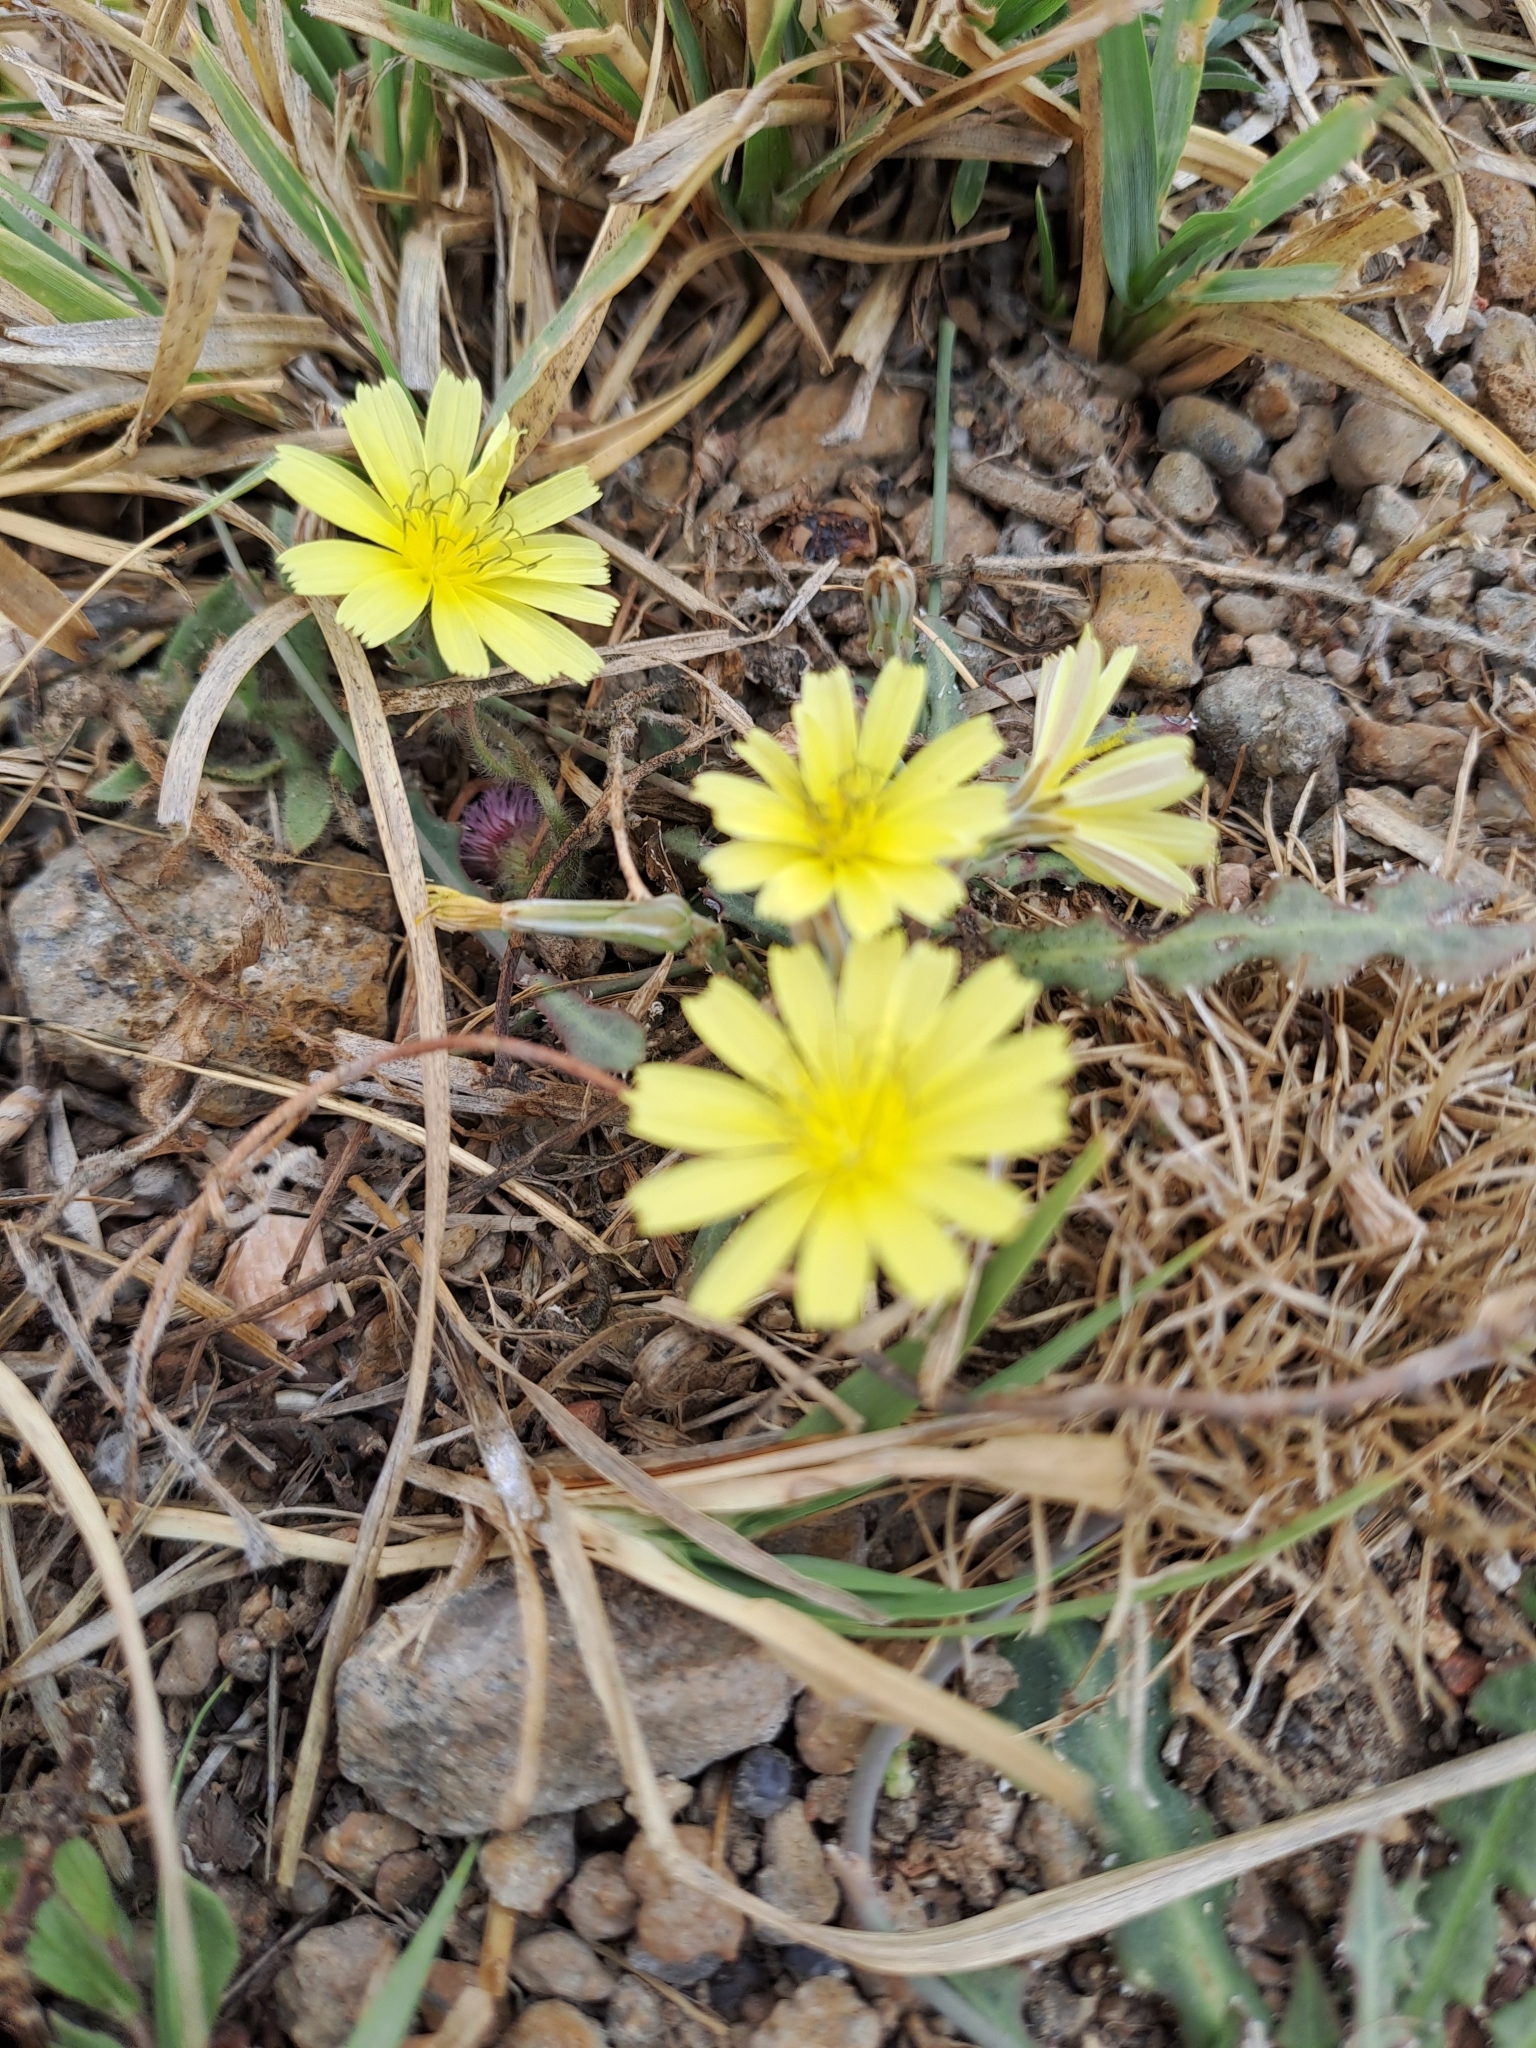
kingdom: Plantae
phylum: Tracheophyta
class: Magnoliopsida
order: Asterales
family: Asteraceae
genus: Launaea
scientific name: Launaea nudicaulis
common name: Naked launaea
